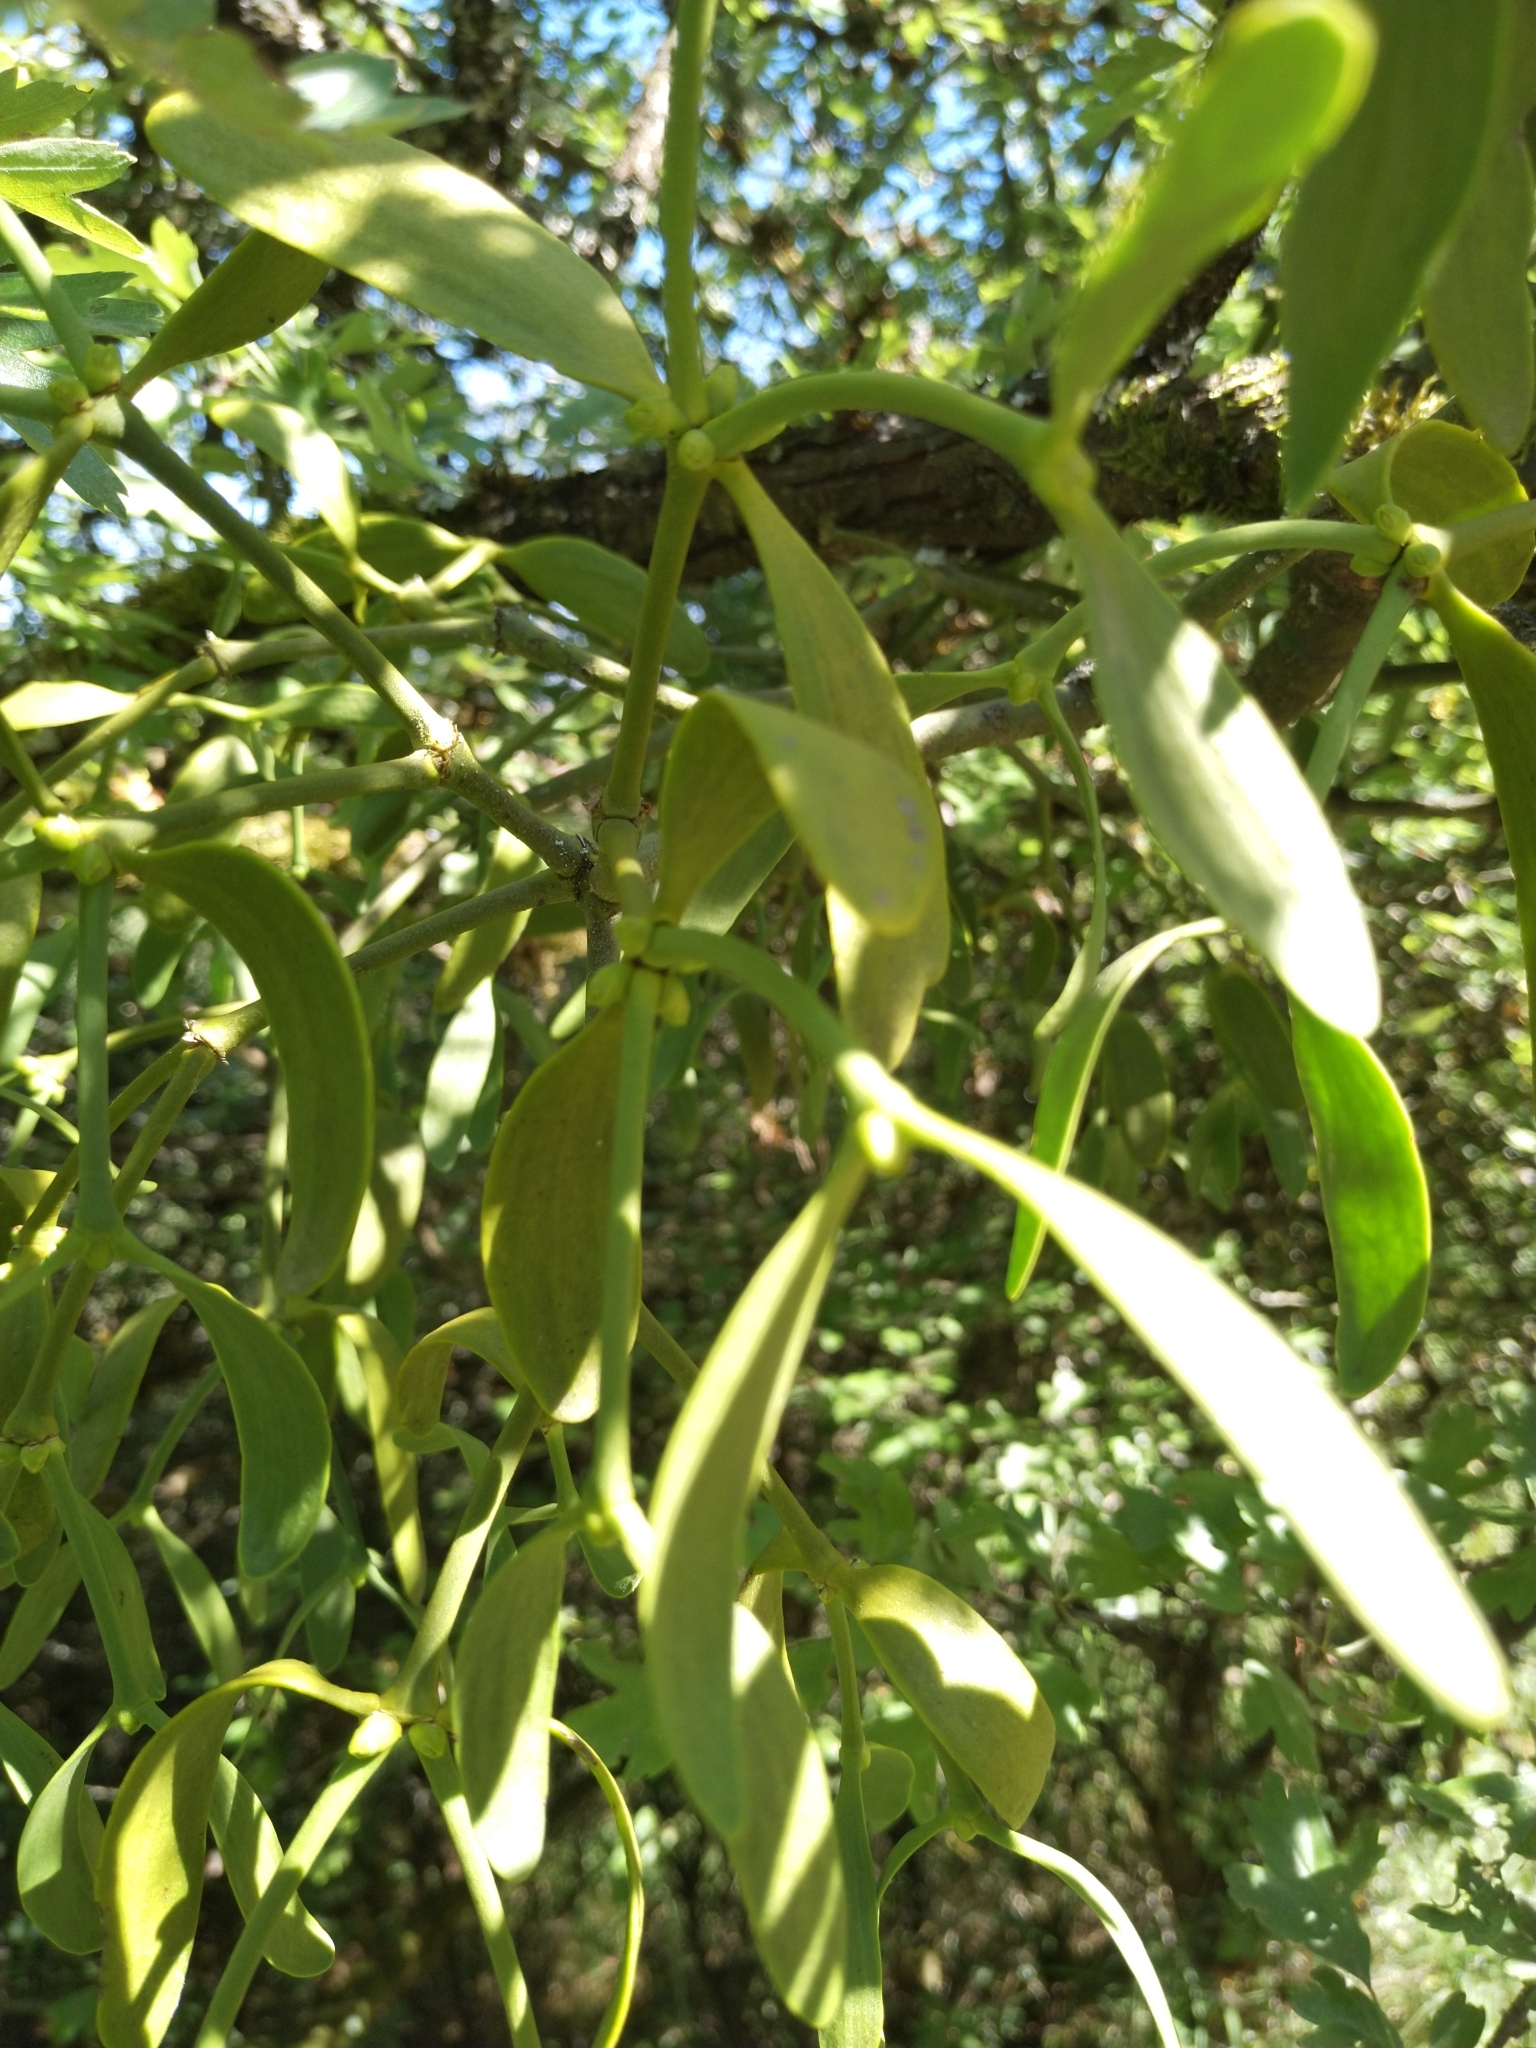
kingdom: Plantae
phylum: Tracheophyta
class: Magnoliopsida
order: Santalales
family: Viscaceae
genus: Viscum
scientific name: Viscum album
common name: Mistletoe
